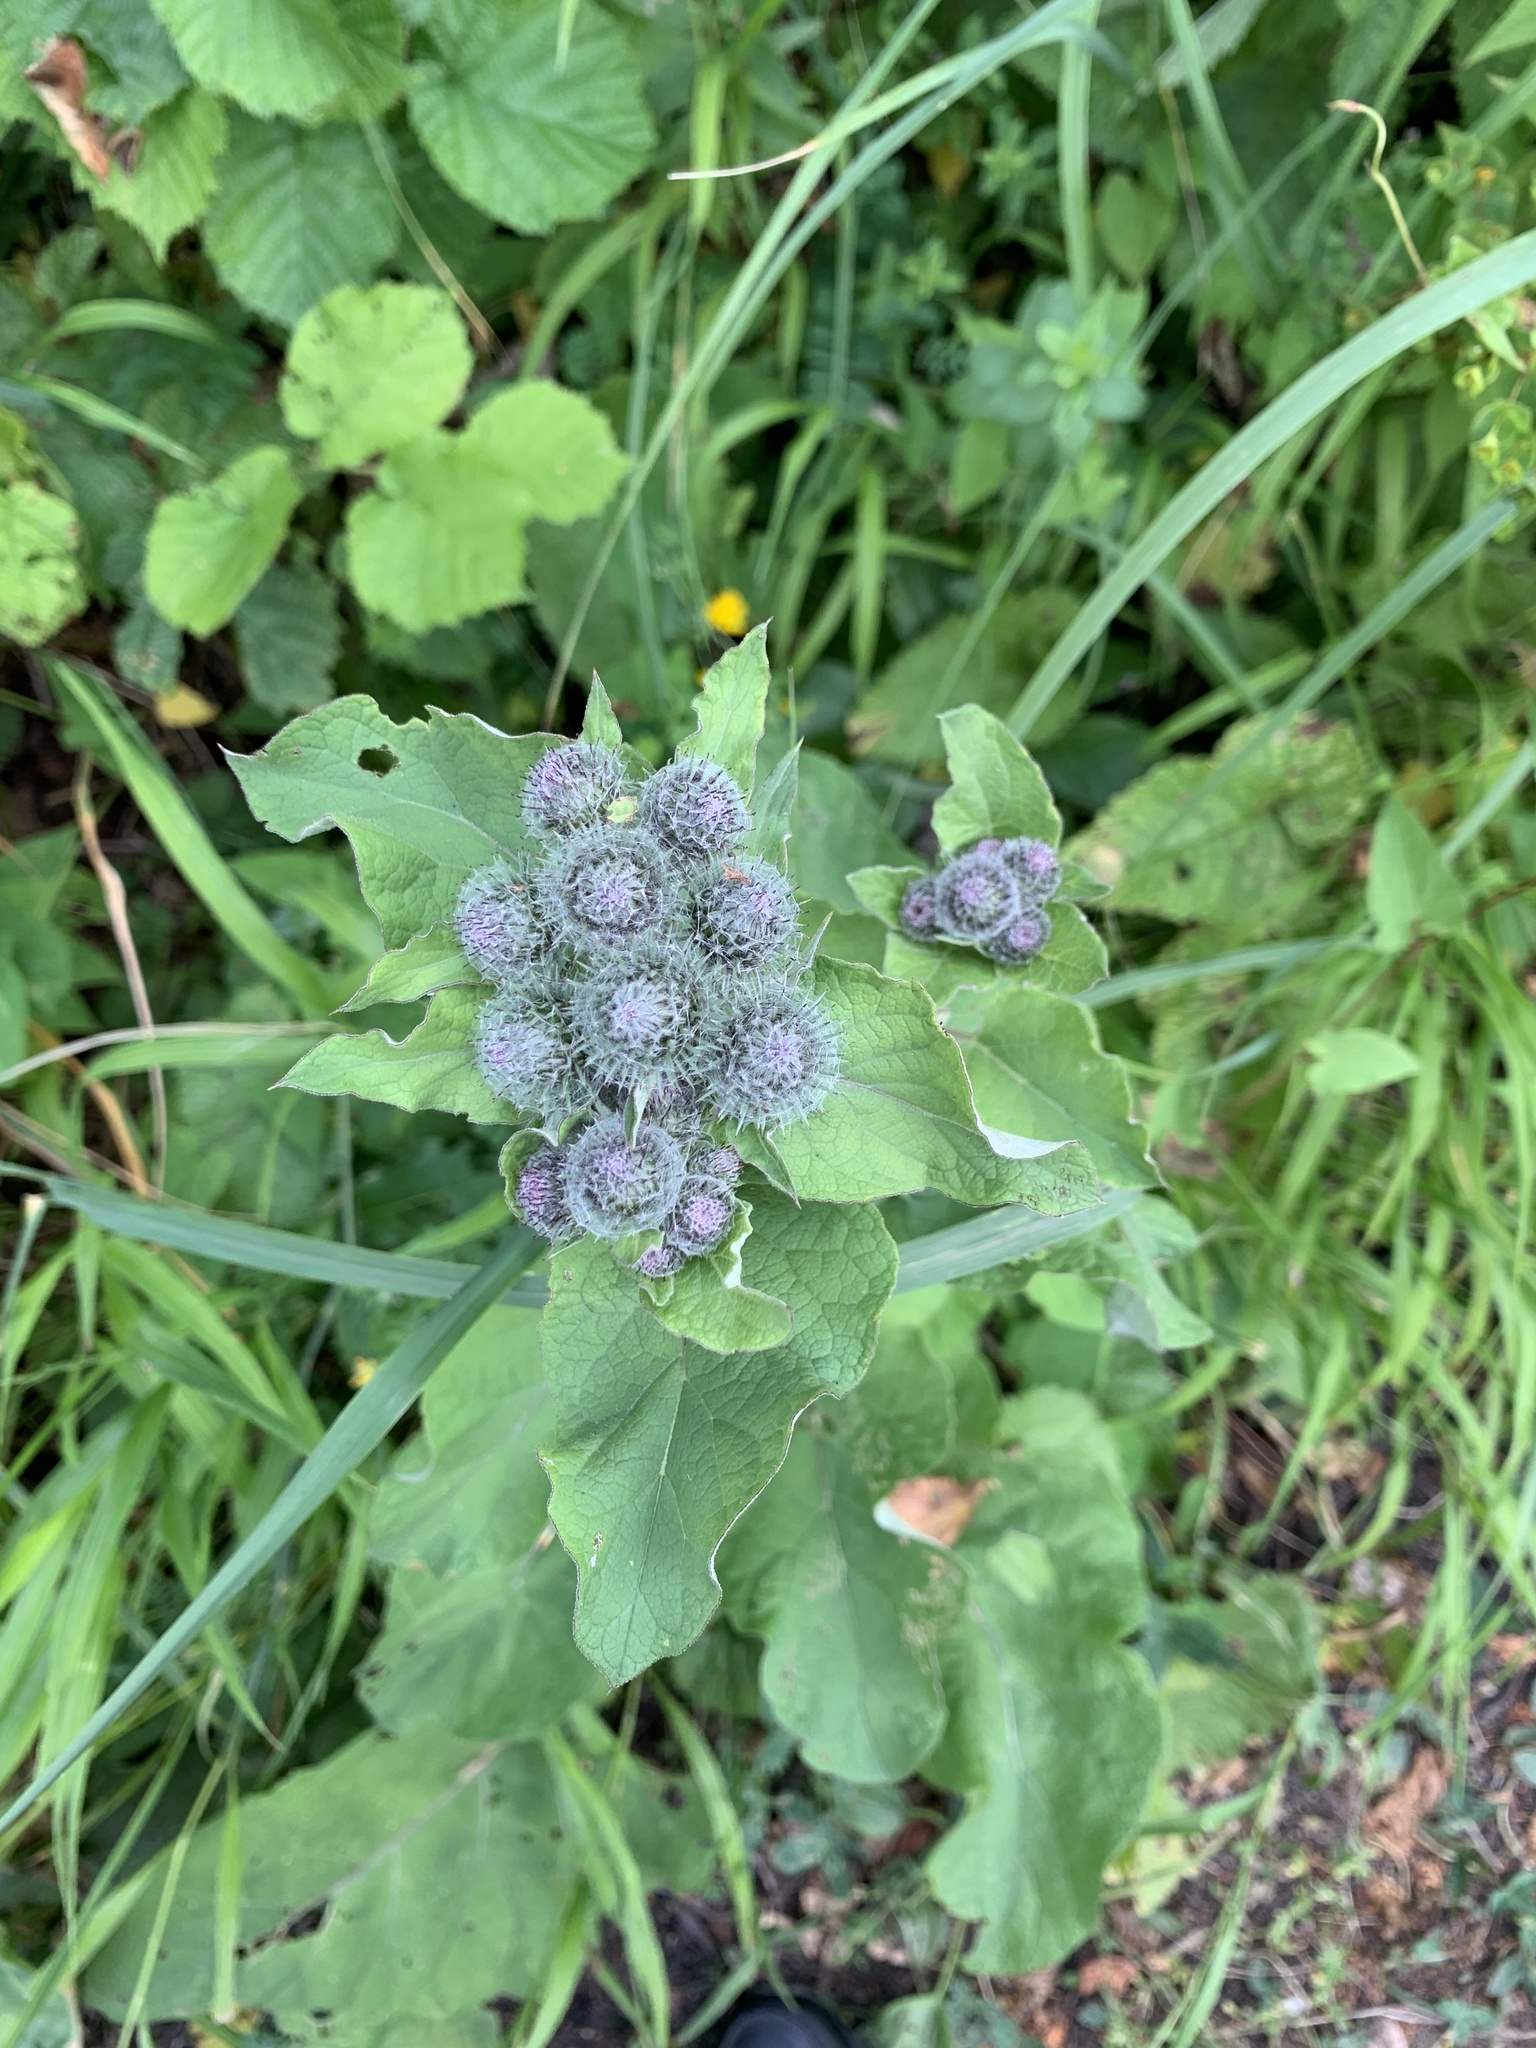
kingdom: Plantae
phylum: Tracheophyta
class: Magnoliopsida
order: Asterales
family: Asteraceae
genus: Arctium
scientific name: Arctium tomentosum
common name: Woolly burdock
